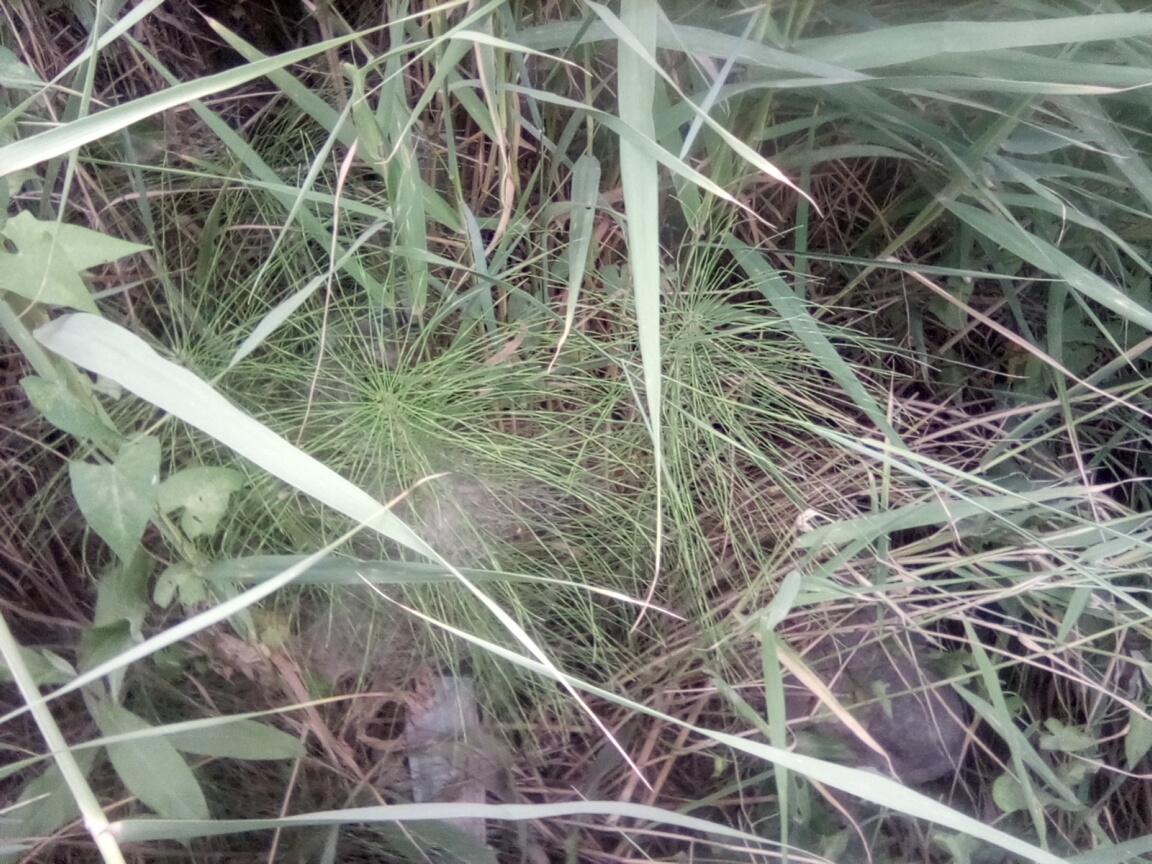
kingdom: Plantae
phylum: Tracheophyta
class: Polypodiopsida
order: Equisetales
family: Equisetaceae
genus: Equisetum
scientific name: Equisetum telmateia
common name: Great horsetail
